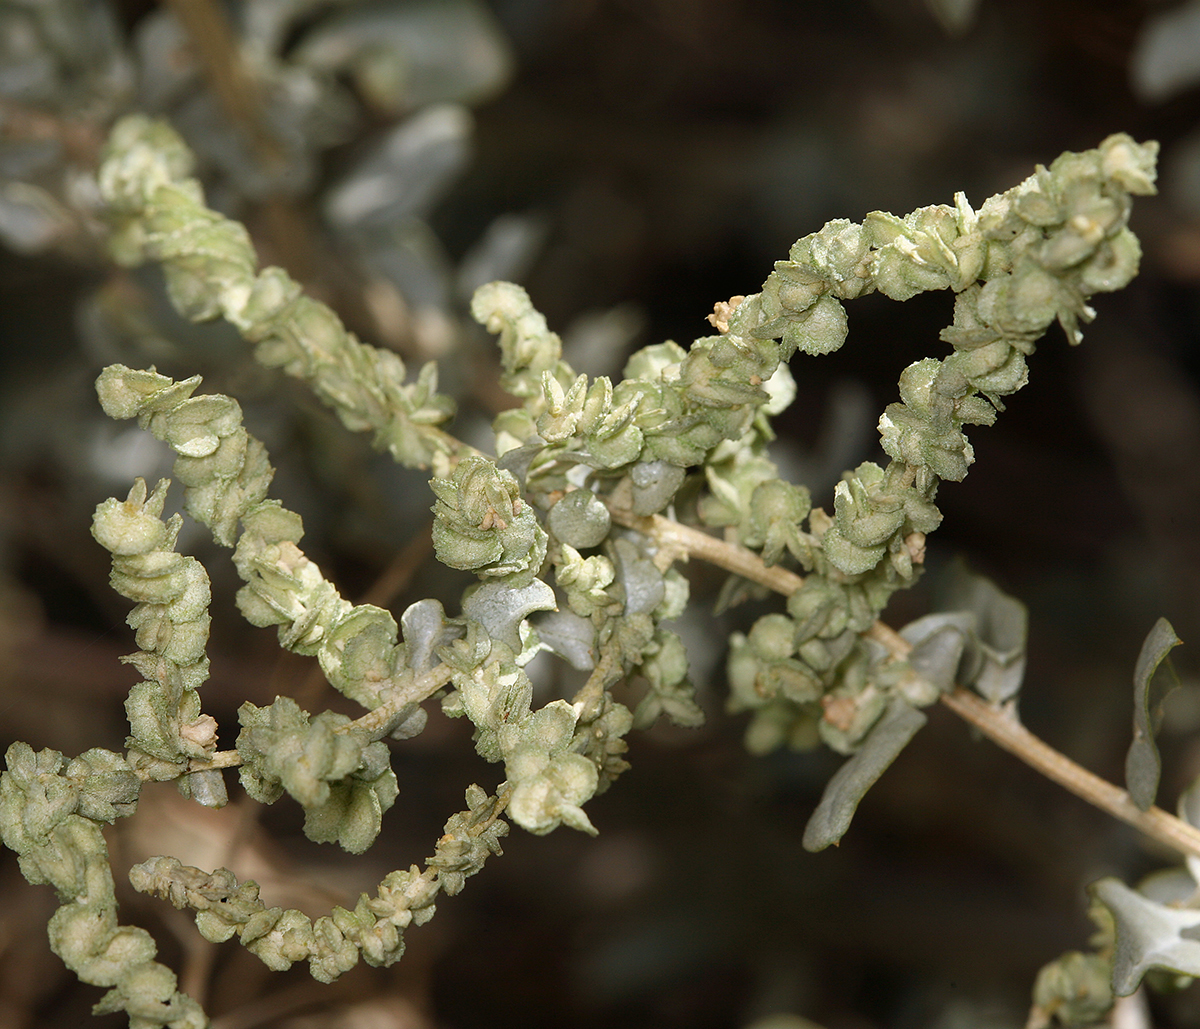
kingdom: Plantae
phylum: Tracheophyta
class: Magnoliopsida
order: Caryophyllales
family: Amaranthaceae
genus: Atriplex
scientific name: Atriplex torreyi
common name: Torrey's saltbush
